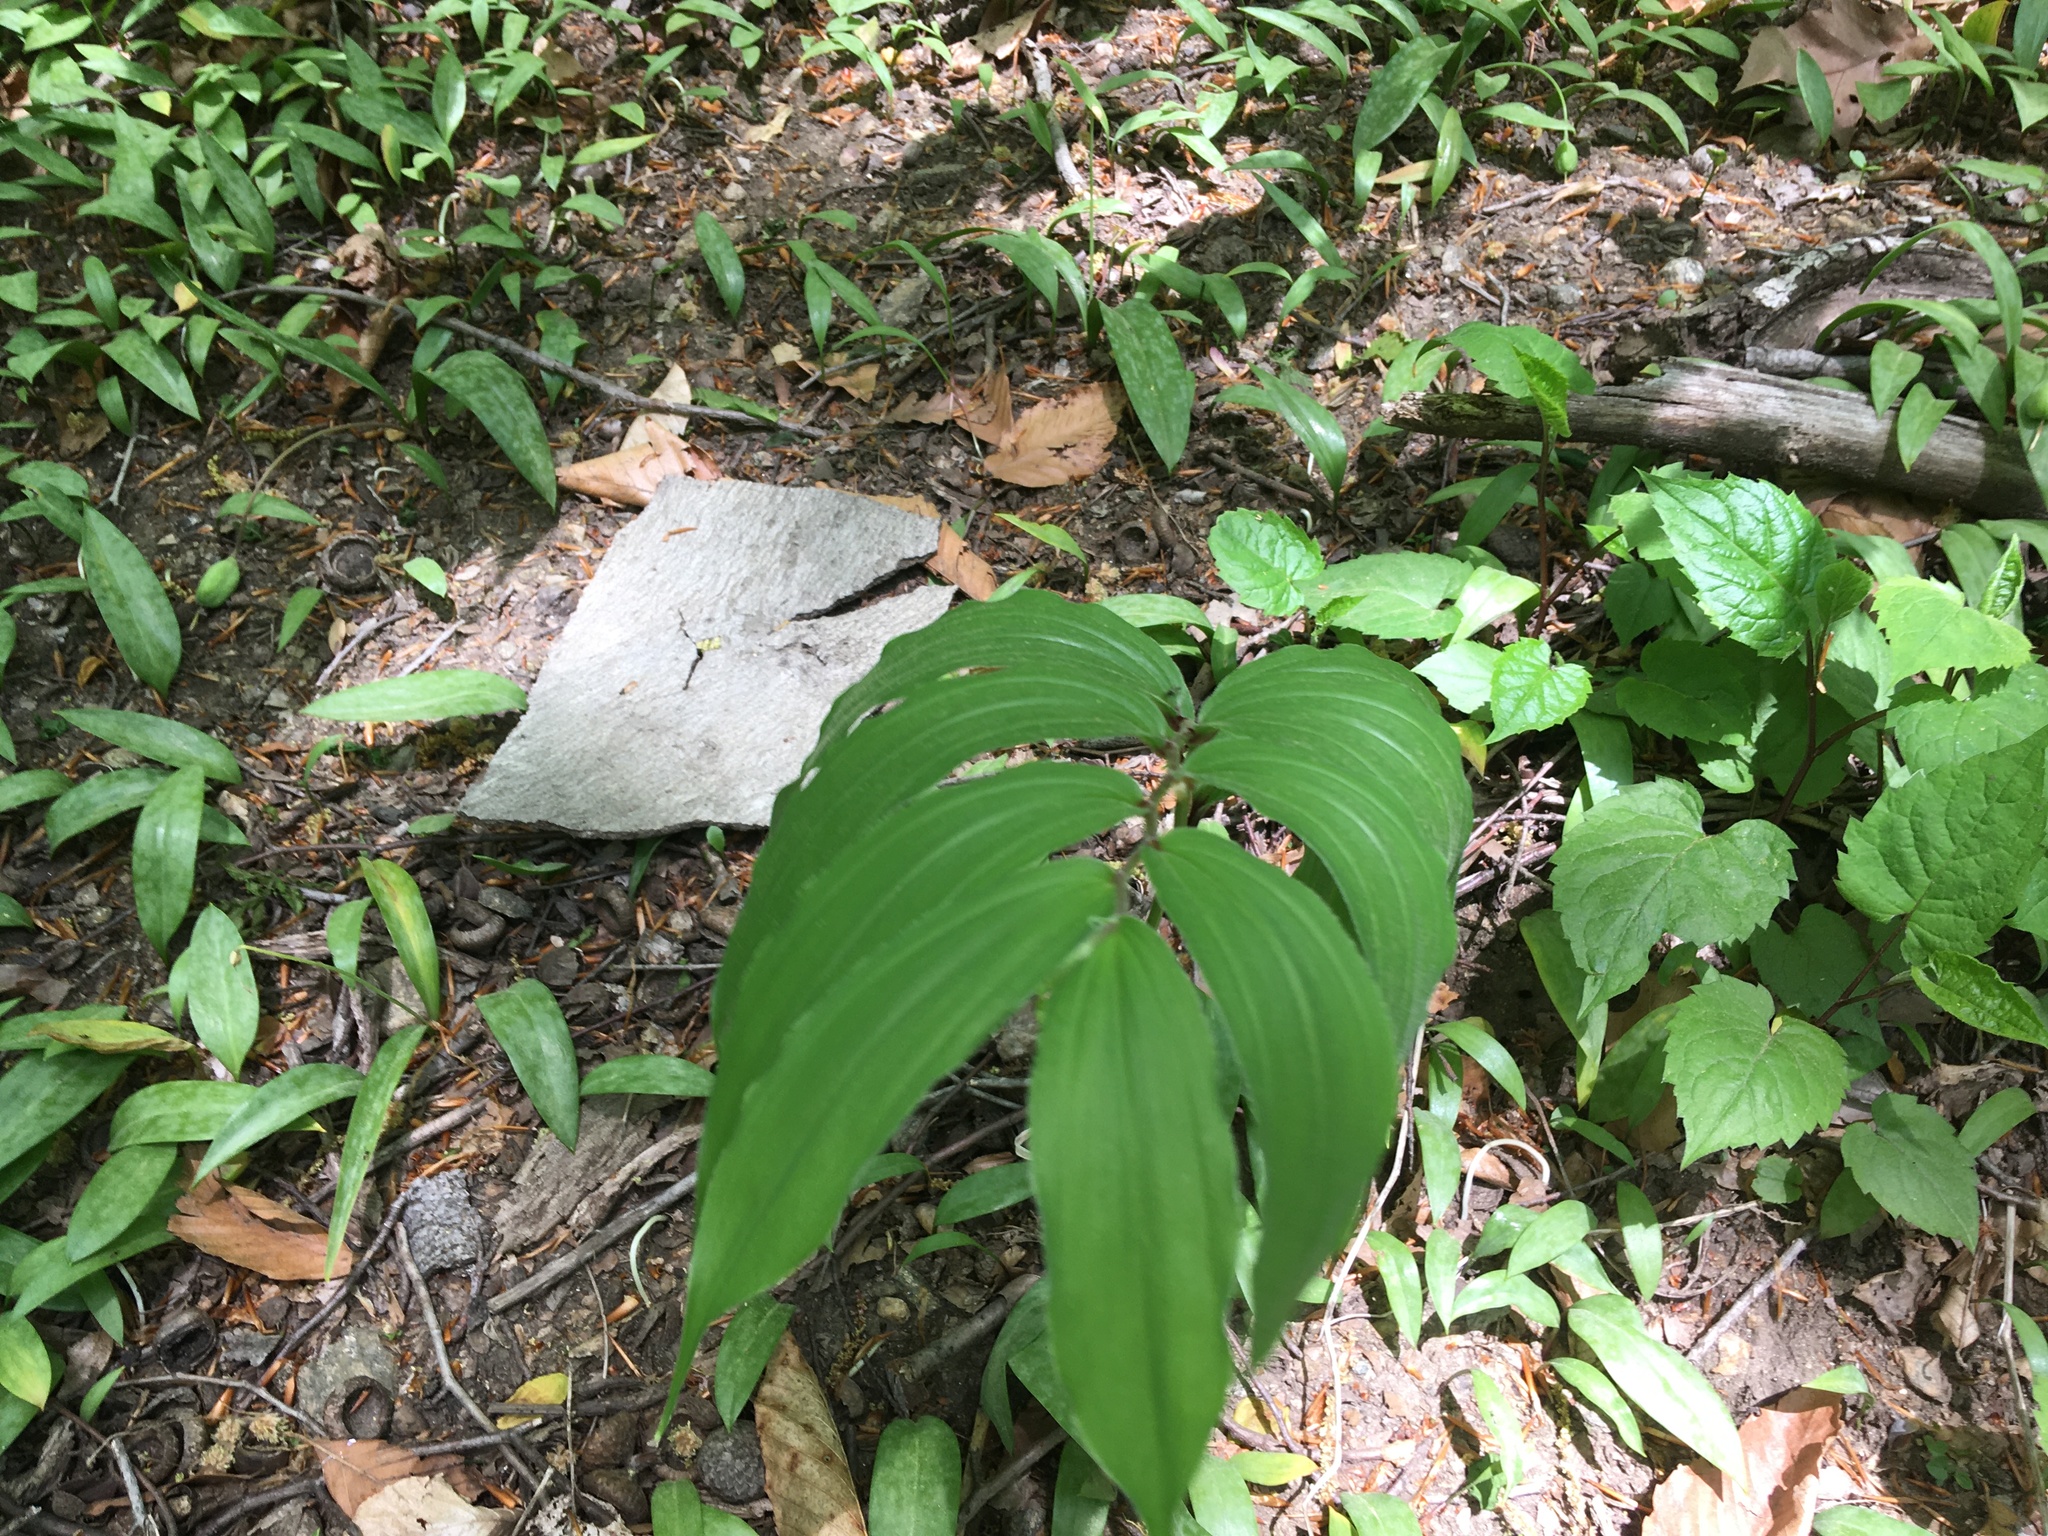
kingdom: Plantae
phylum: Tracheophyta
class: Liliopsida
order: Asparagales
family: Asparagaceae
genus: Maianthemum
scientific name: Maianthemum racemosum
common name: False spikenard
